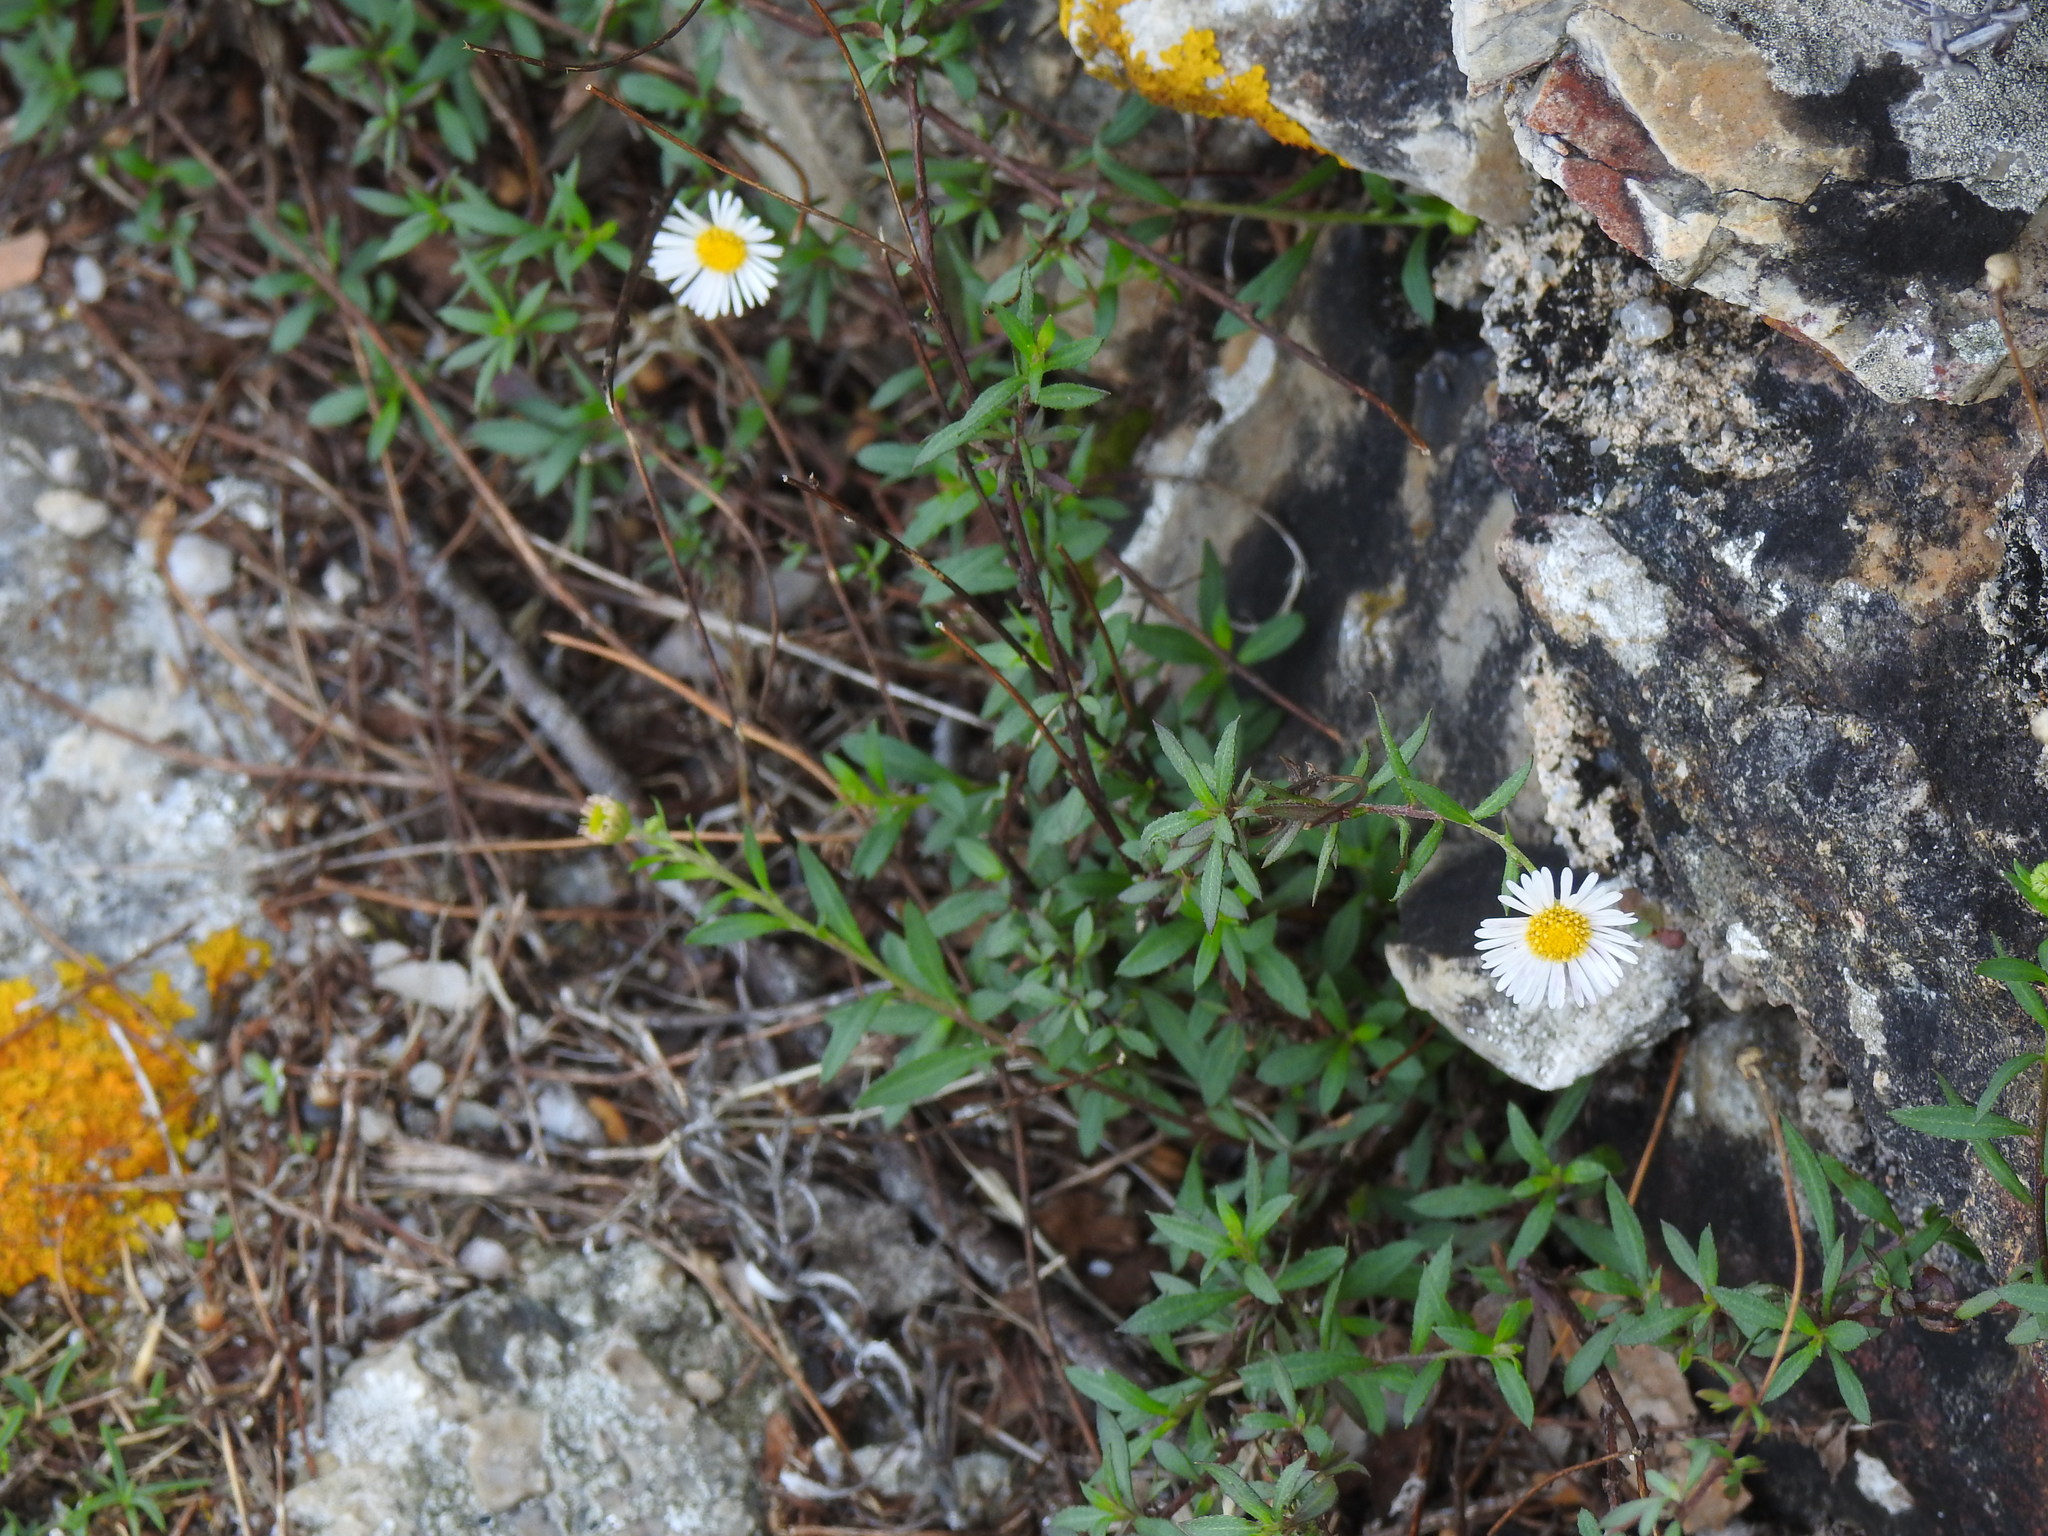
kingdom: Plantae
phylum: Tracheophyta
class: Magnoliopsida
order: Asterales
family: Asteraceae
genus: Erigeron
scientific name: Erigeron karvinskianus
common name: Mexican fleabane
